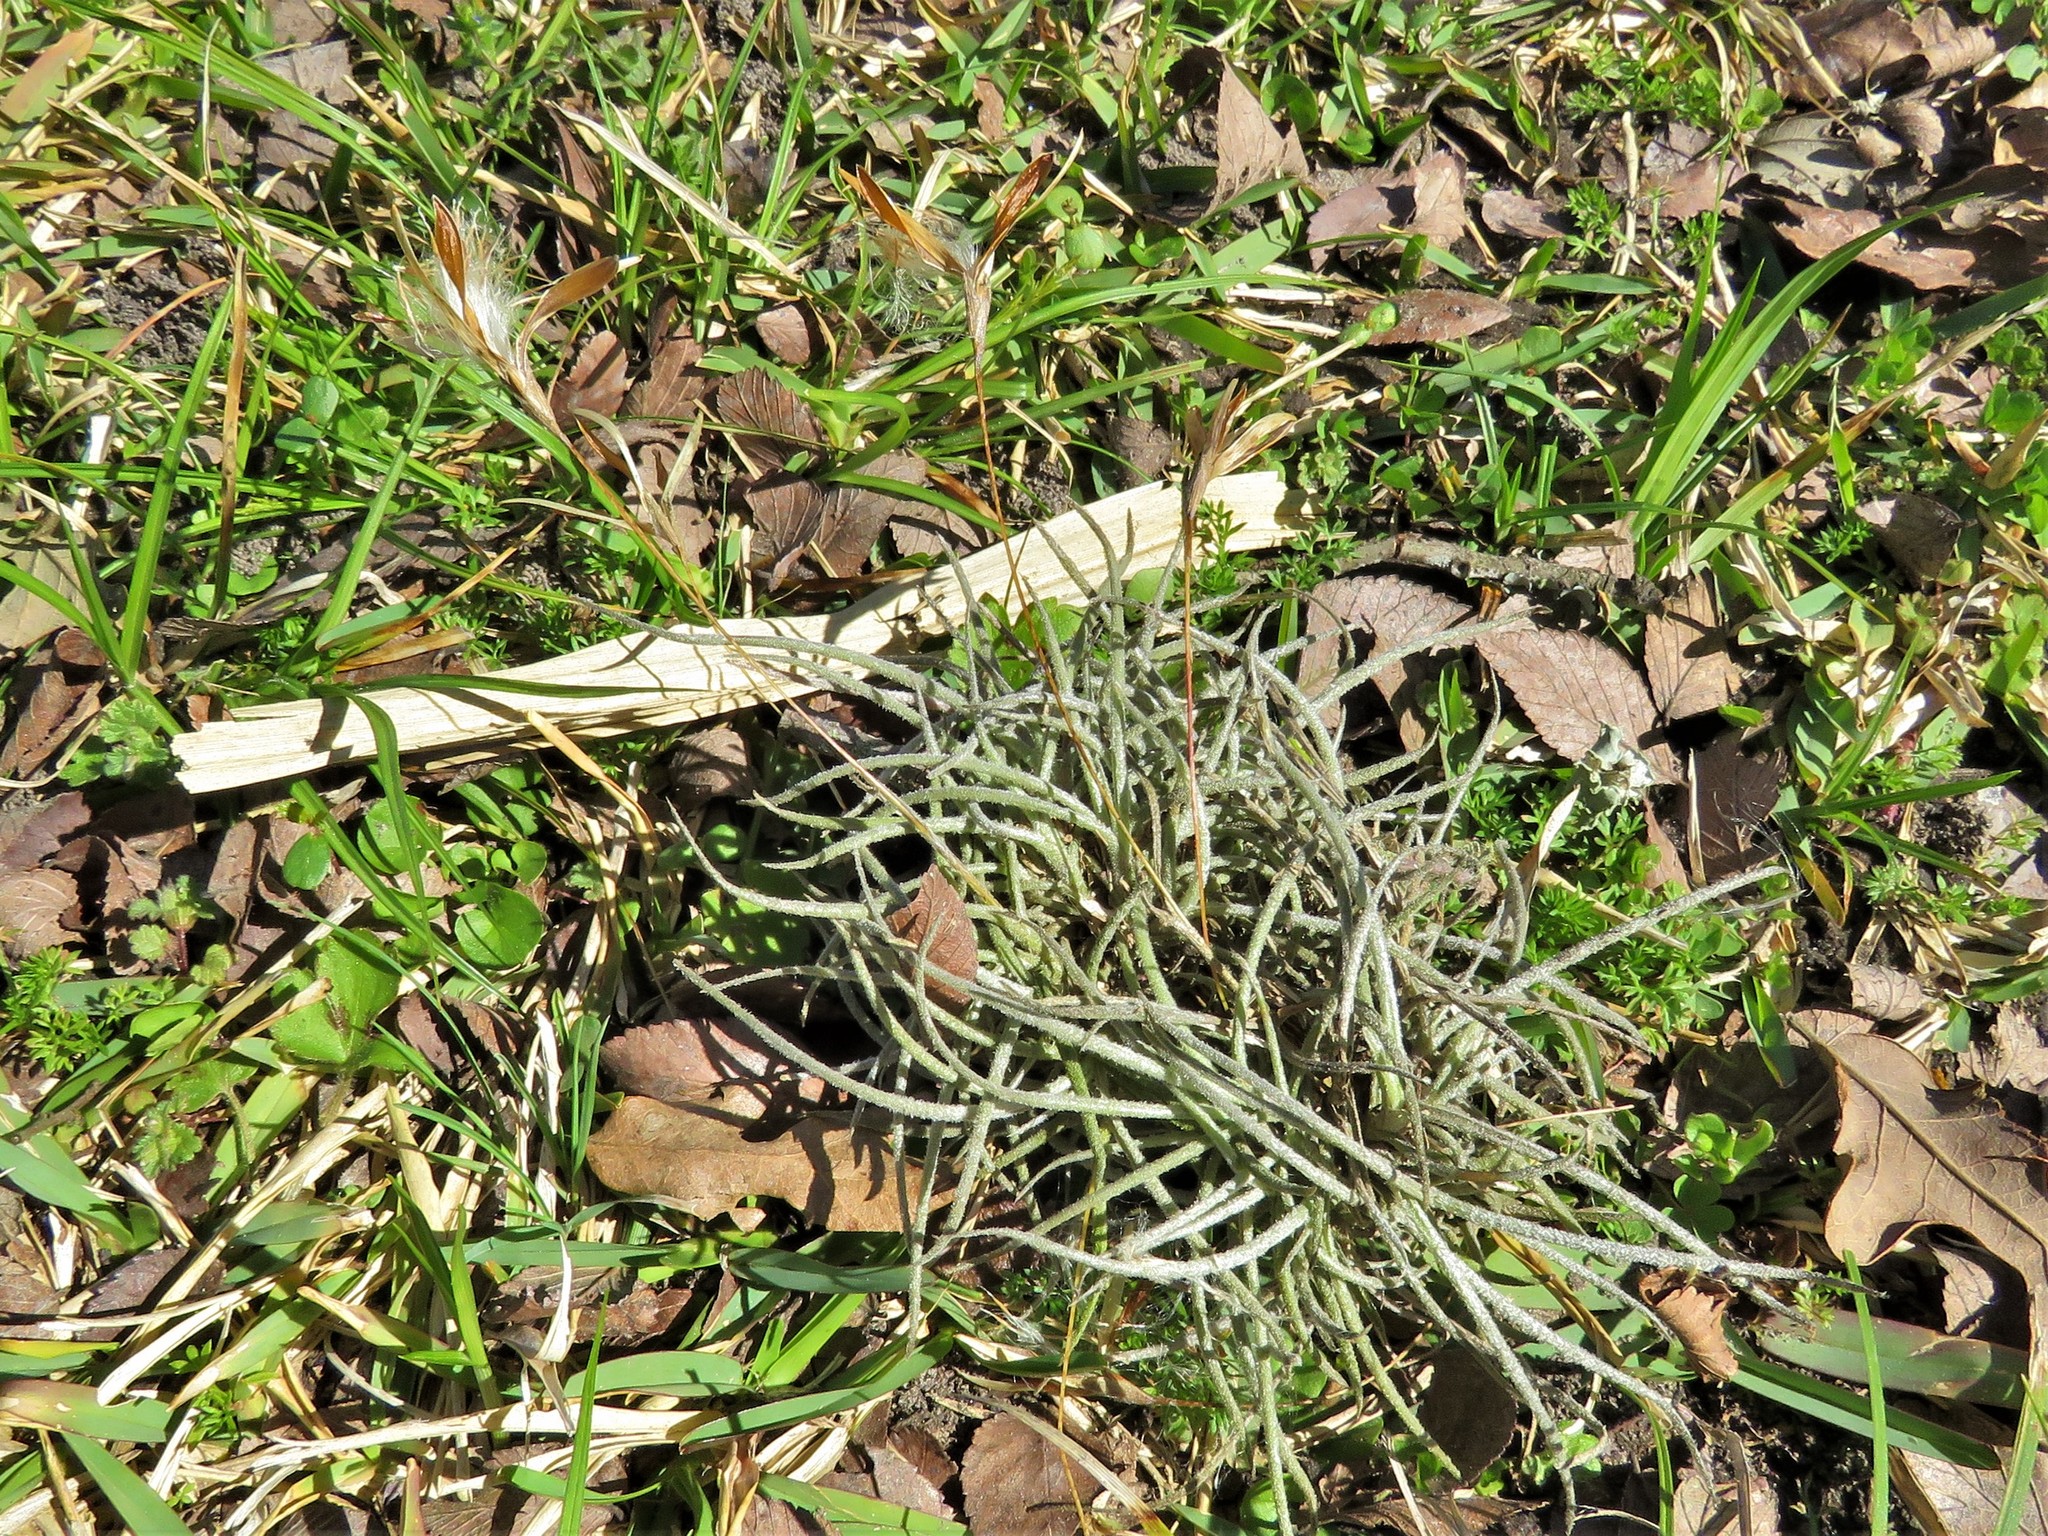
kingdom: Plantae
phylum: Tracheophyta
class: Liliopsida
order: Poales
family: Bromeliaceae
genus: Tillandsia
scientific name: Tillandsia recurvata
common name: Small ballmoss
